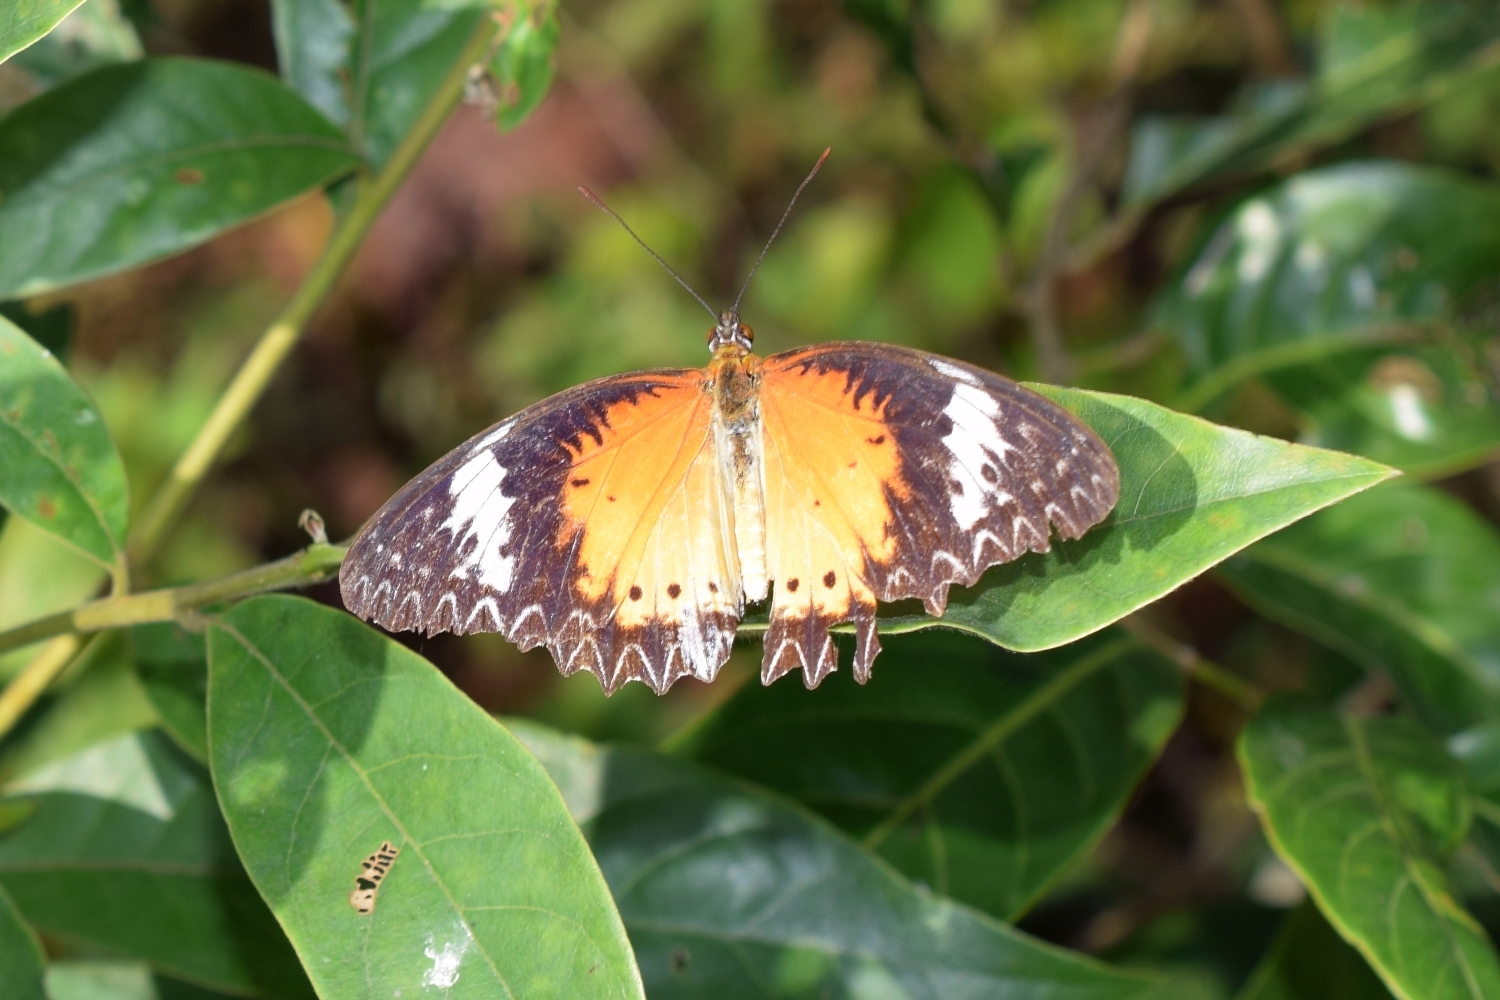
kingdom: Animalia
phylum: Arthropoda
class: Insecta
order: Lepidoptera
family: Nymphalidae
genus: Cethosia
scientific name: Cethosia cyane
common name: Leopard lacewing butterfly
